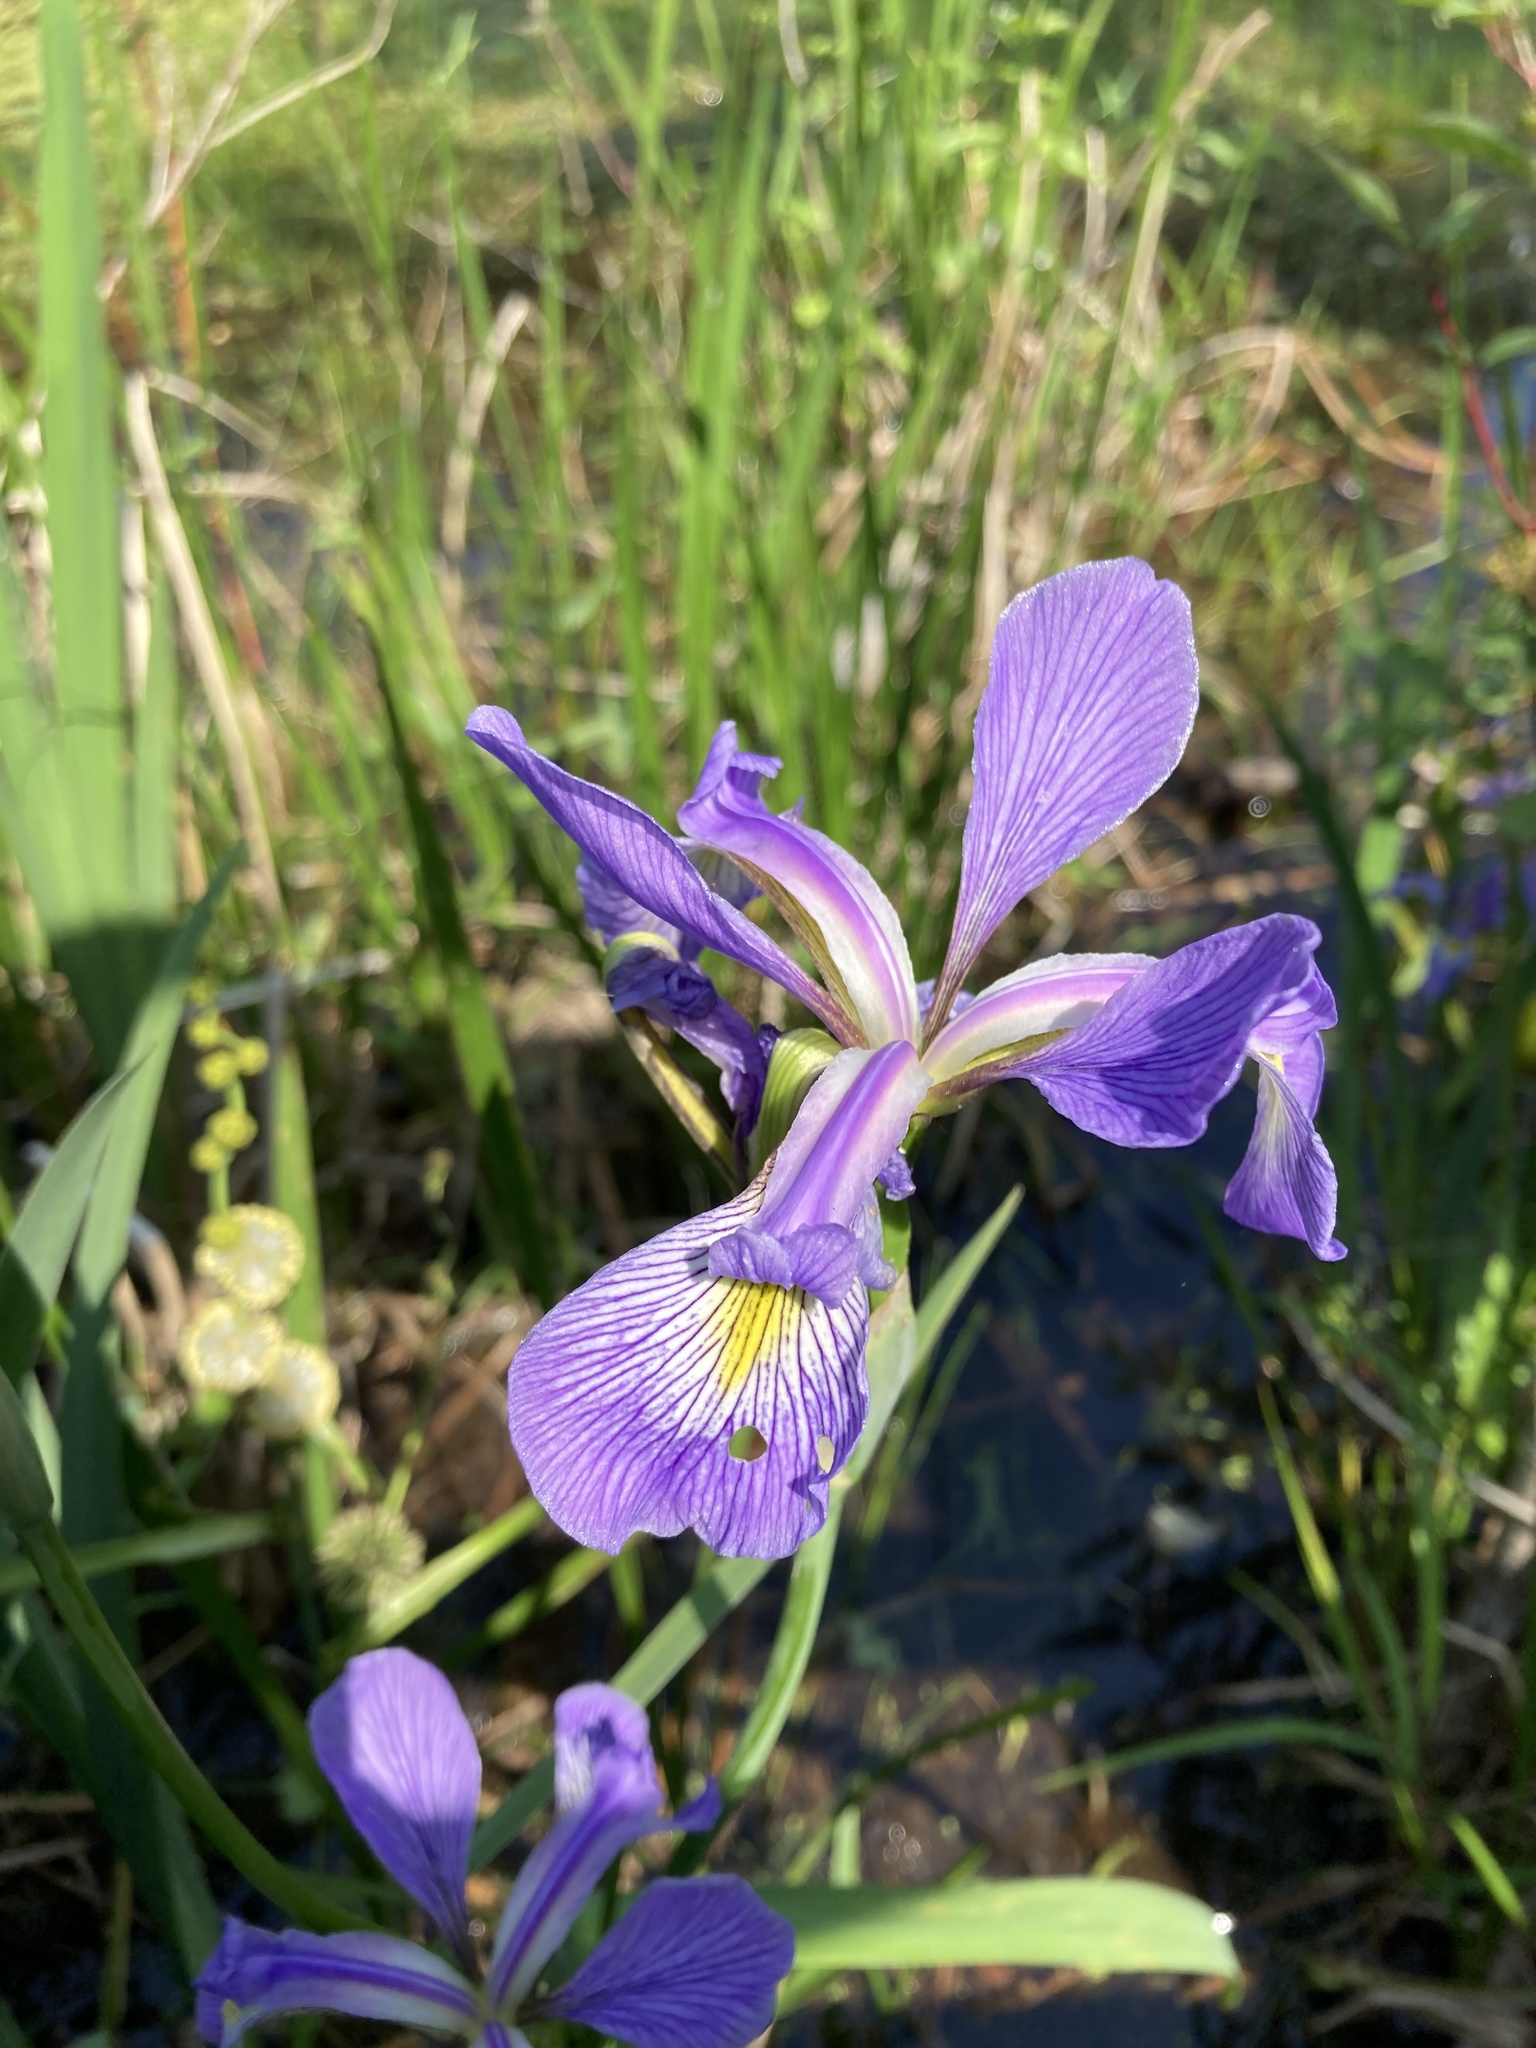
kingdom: Plantae
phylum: Tracheophyta
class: Liliopsida
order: Asparagales
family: Iridaceae
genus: Iris
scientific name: Iris virginica
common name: Southern blue flag
